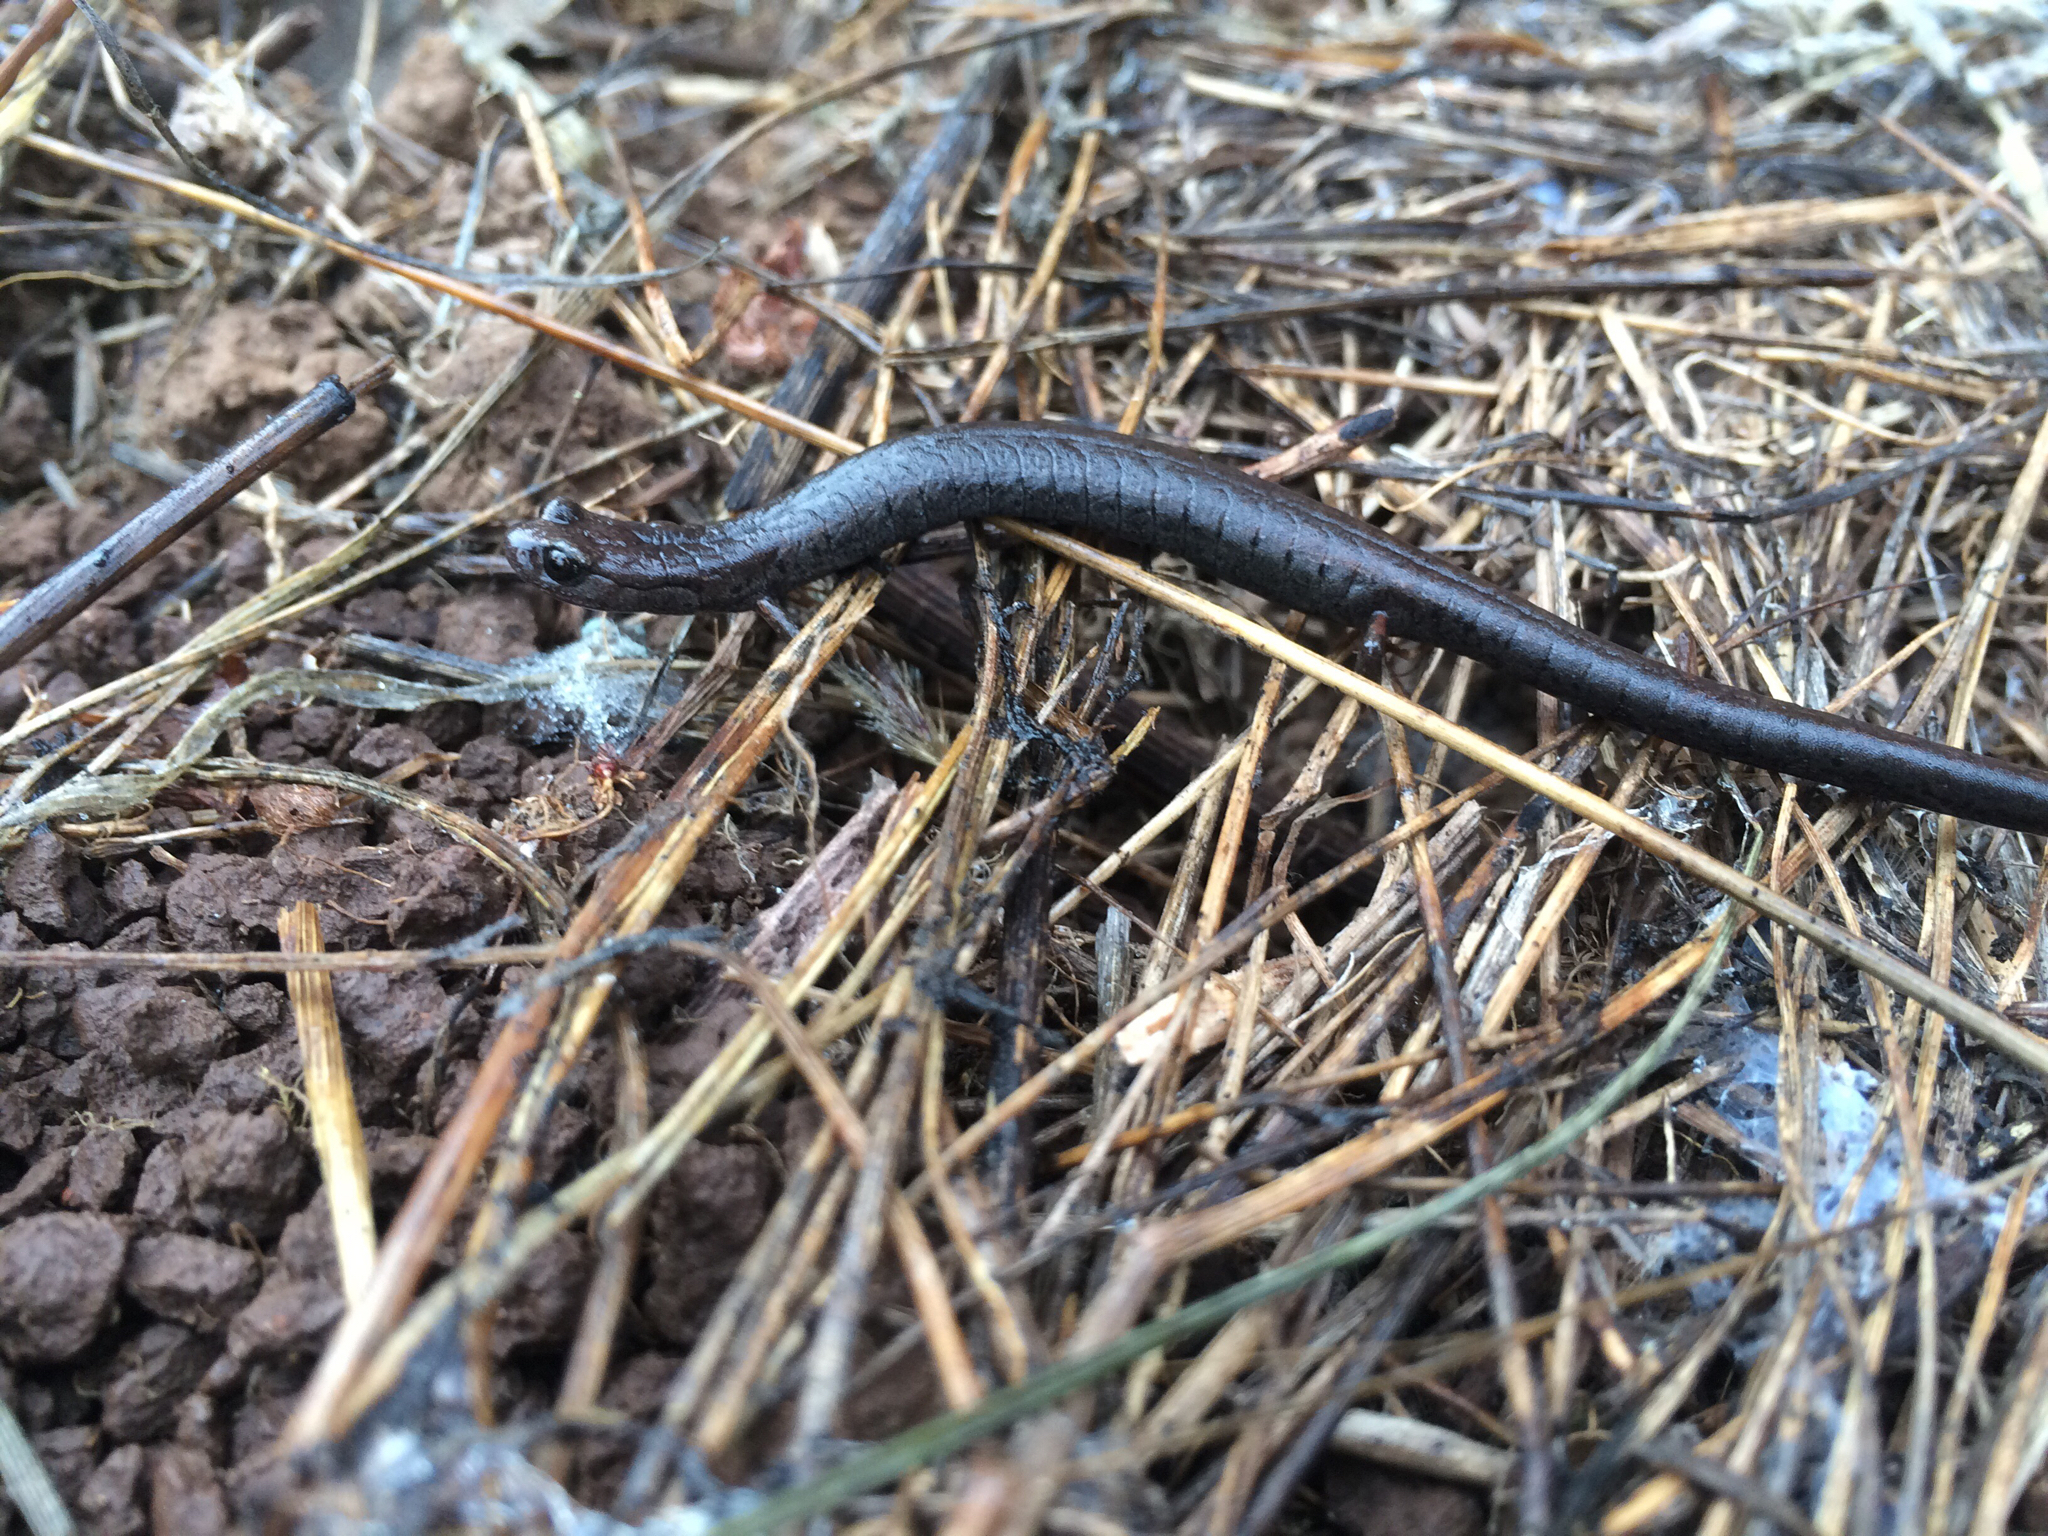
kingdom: Animalia
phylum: Chordata
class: Amphibia
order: Caudata
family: Plethodontidae
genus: Batrachoseps
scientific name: Batrachoseps attenuatus
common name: California slender salamander
